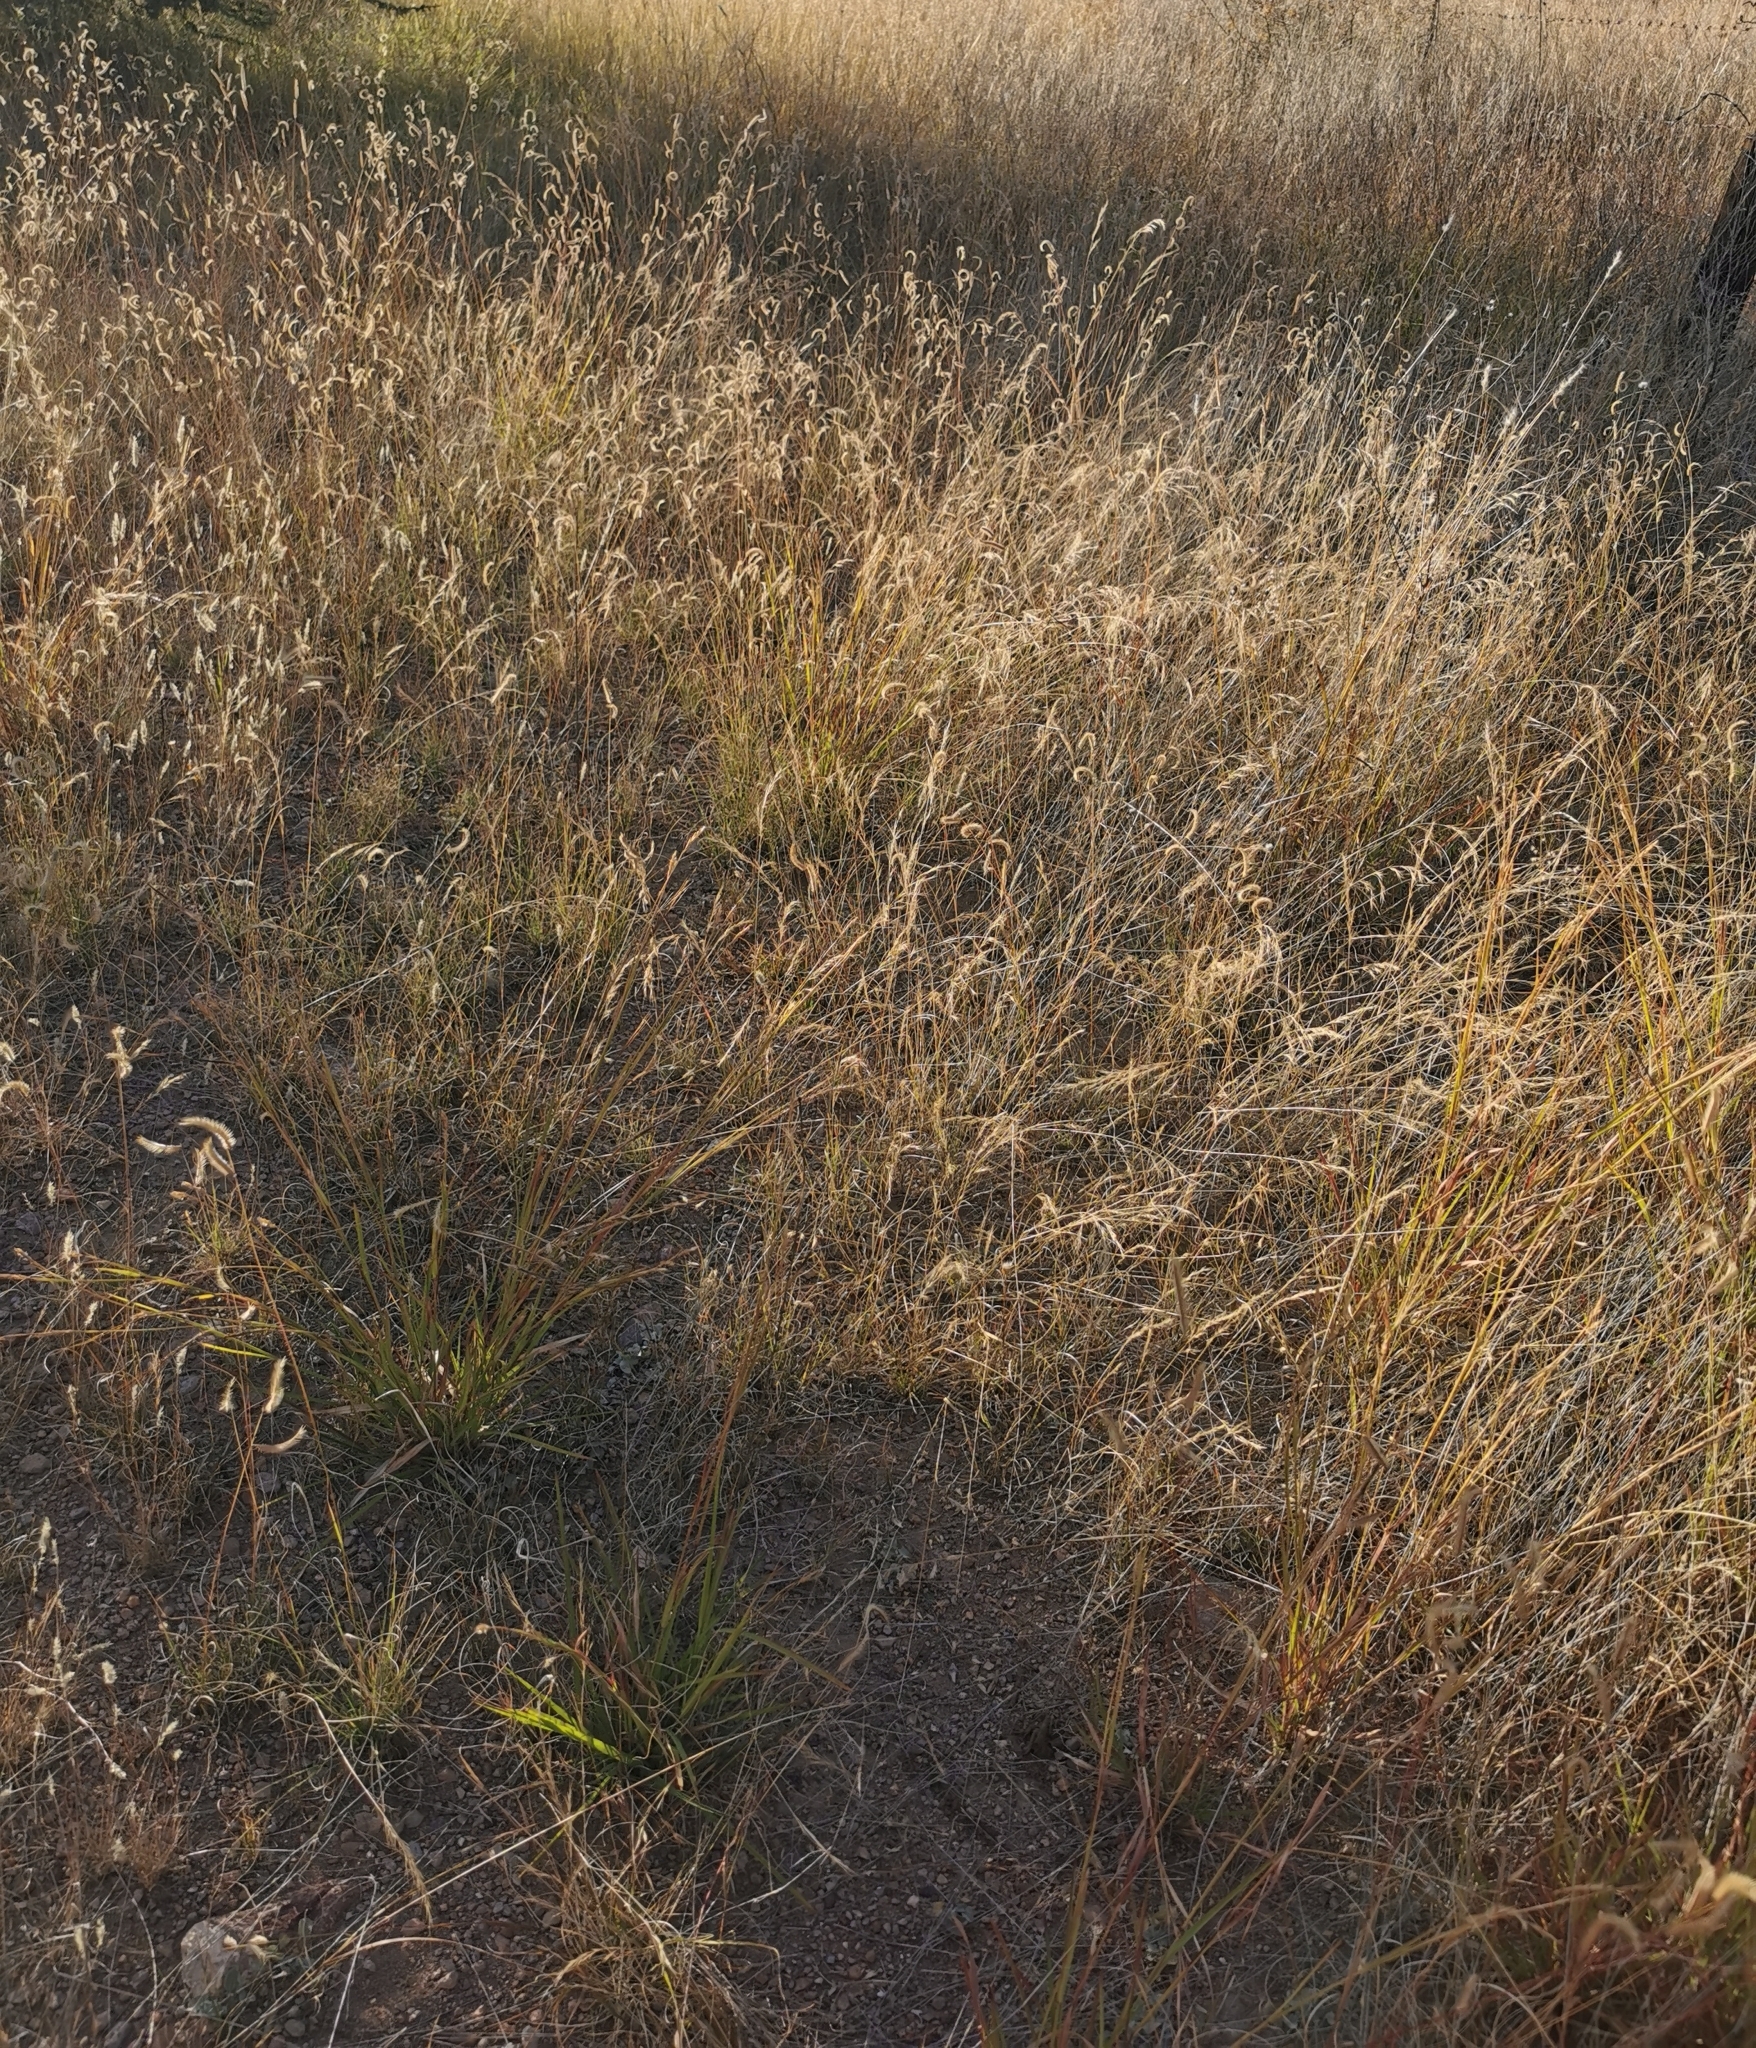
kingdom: Plantae
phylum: Tracheophyta
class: Liliopsida
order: Poales
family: Poaceae
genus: Bouteloua
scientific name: Bouteloua gracilis
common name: Blue grama
